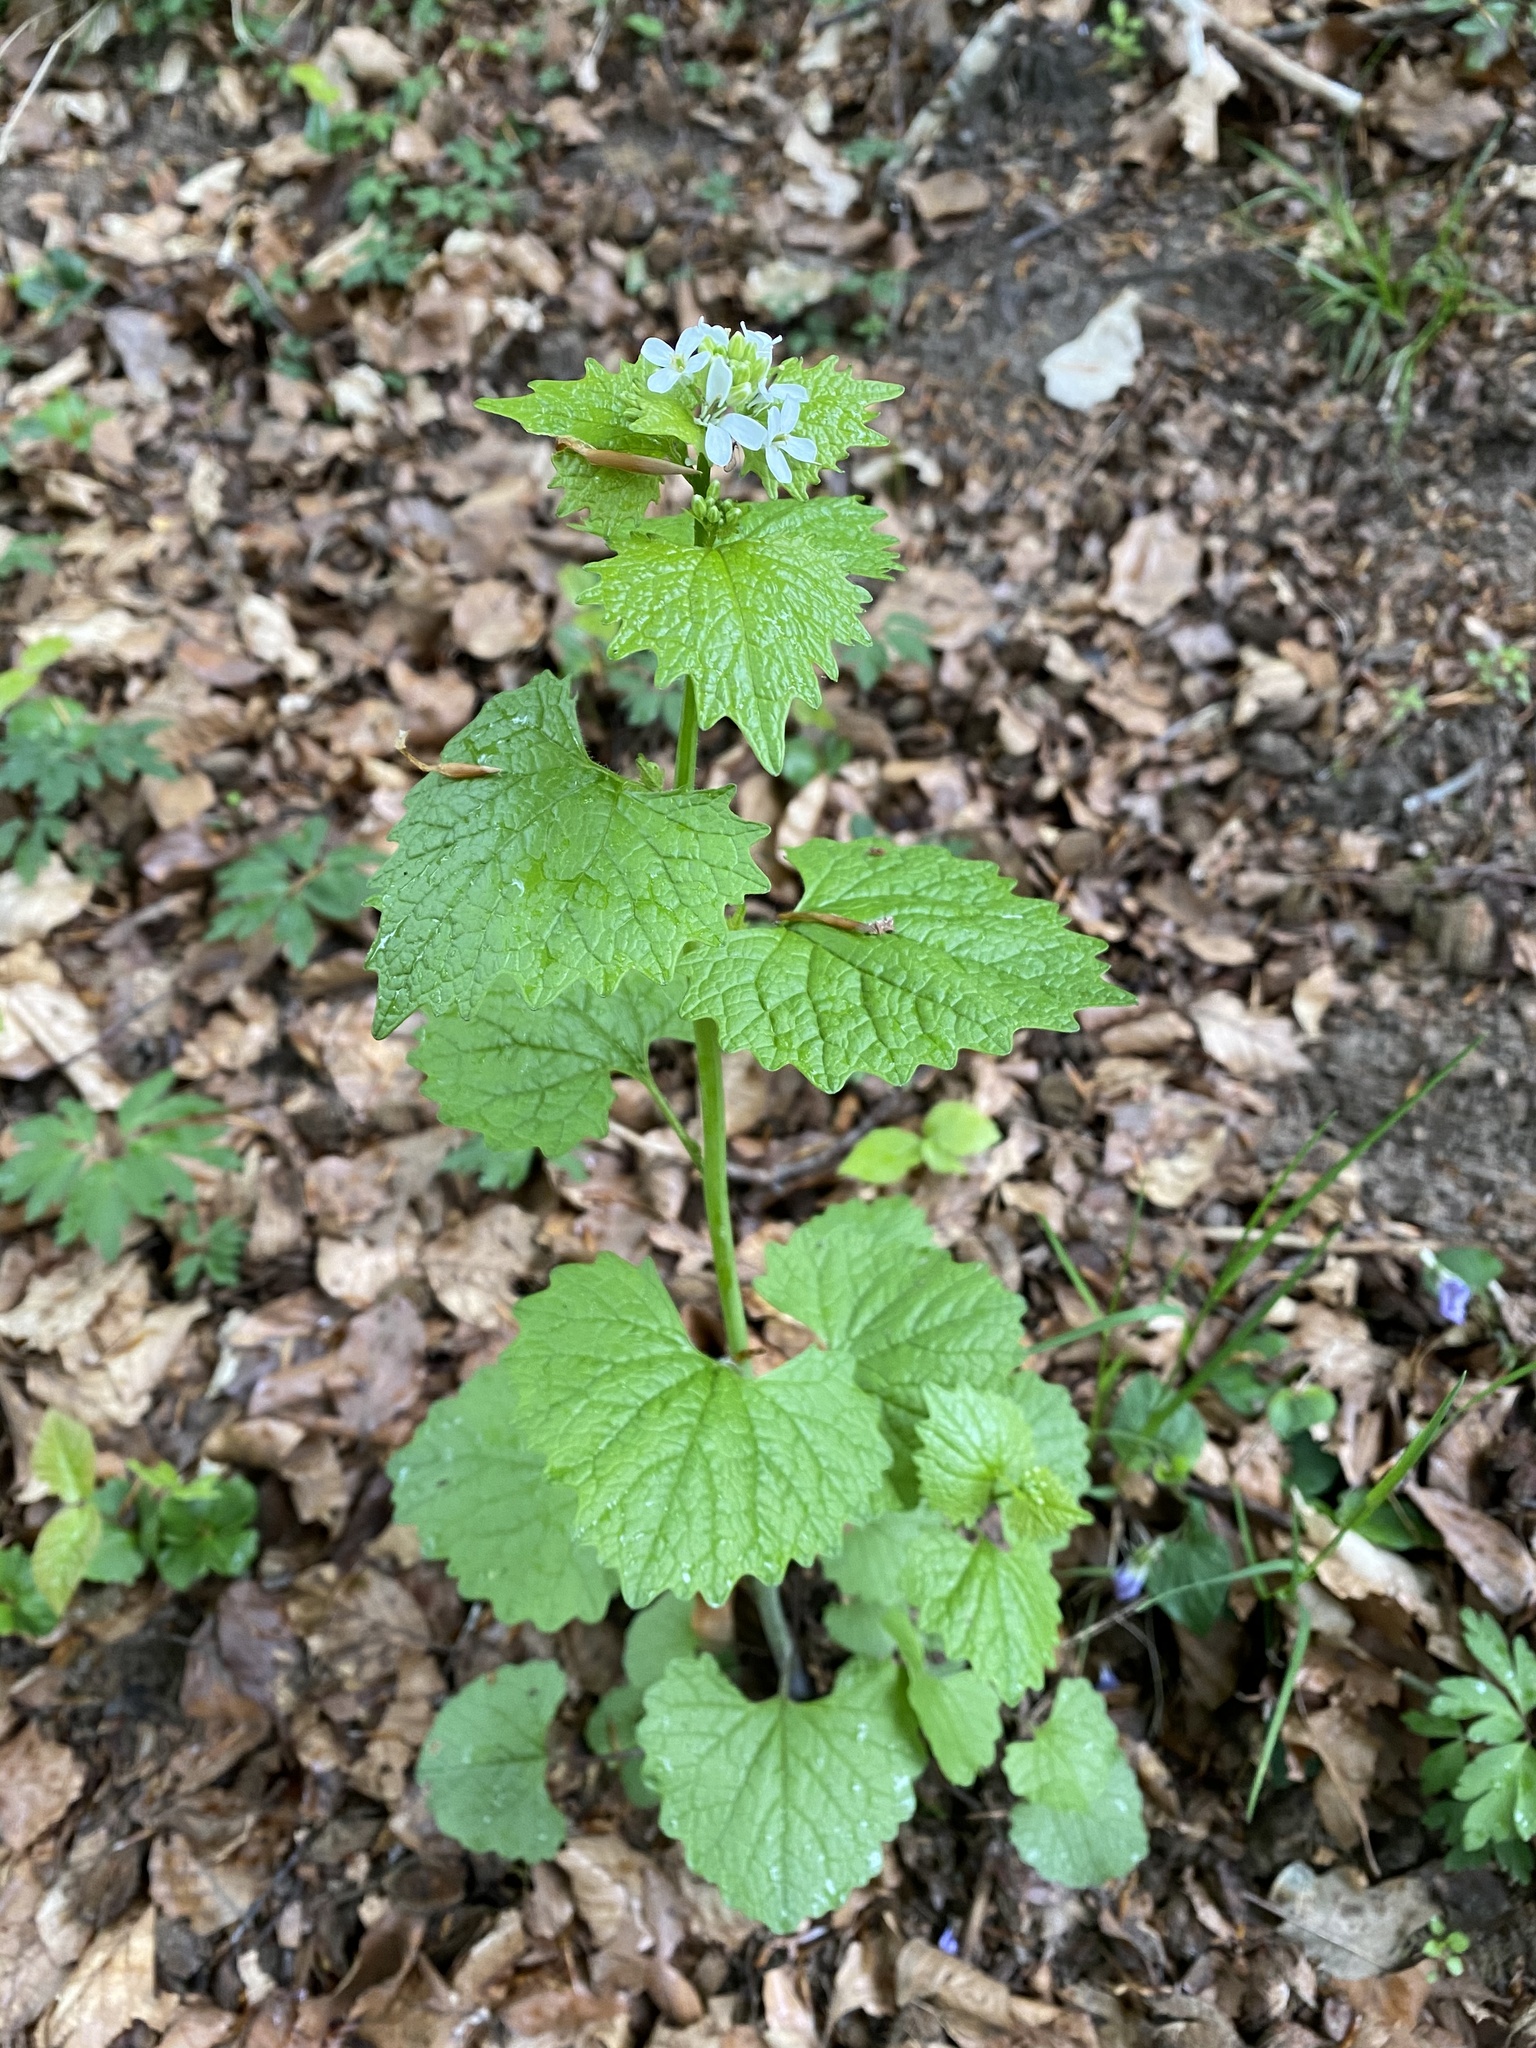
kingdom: Plantae
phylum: Tracheophyta
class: Magnoliopsida
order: Brassicales
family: Brassicaceae
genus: Alliaria
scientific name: Alliaria petiolata
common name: Garlic mustard
